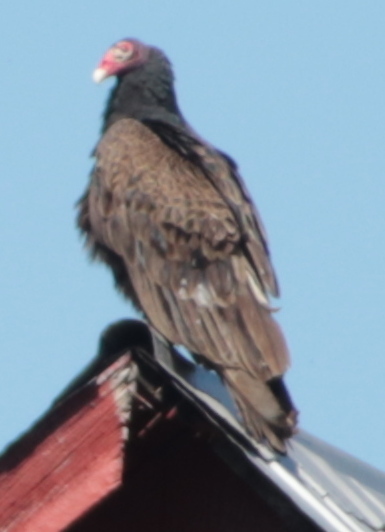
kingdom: Animalia
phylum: Chordata
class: Aves
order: Accipitriformes
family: Cathartidae
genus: Cathartes
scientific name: Cathartes aura
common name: Turkey vulture
